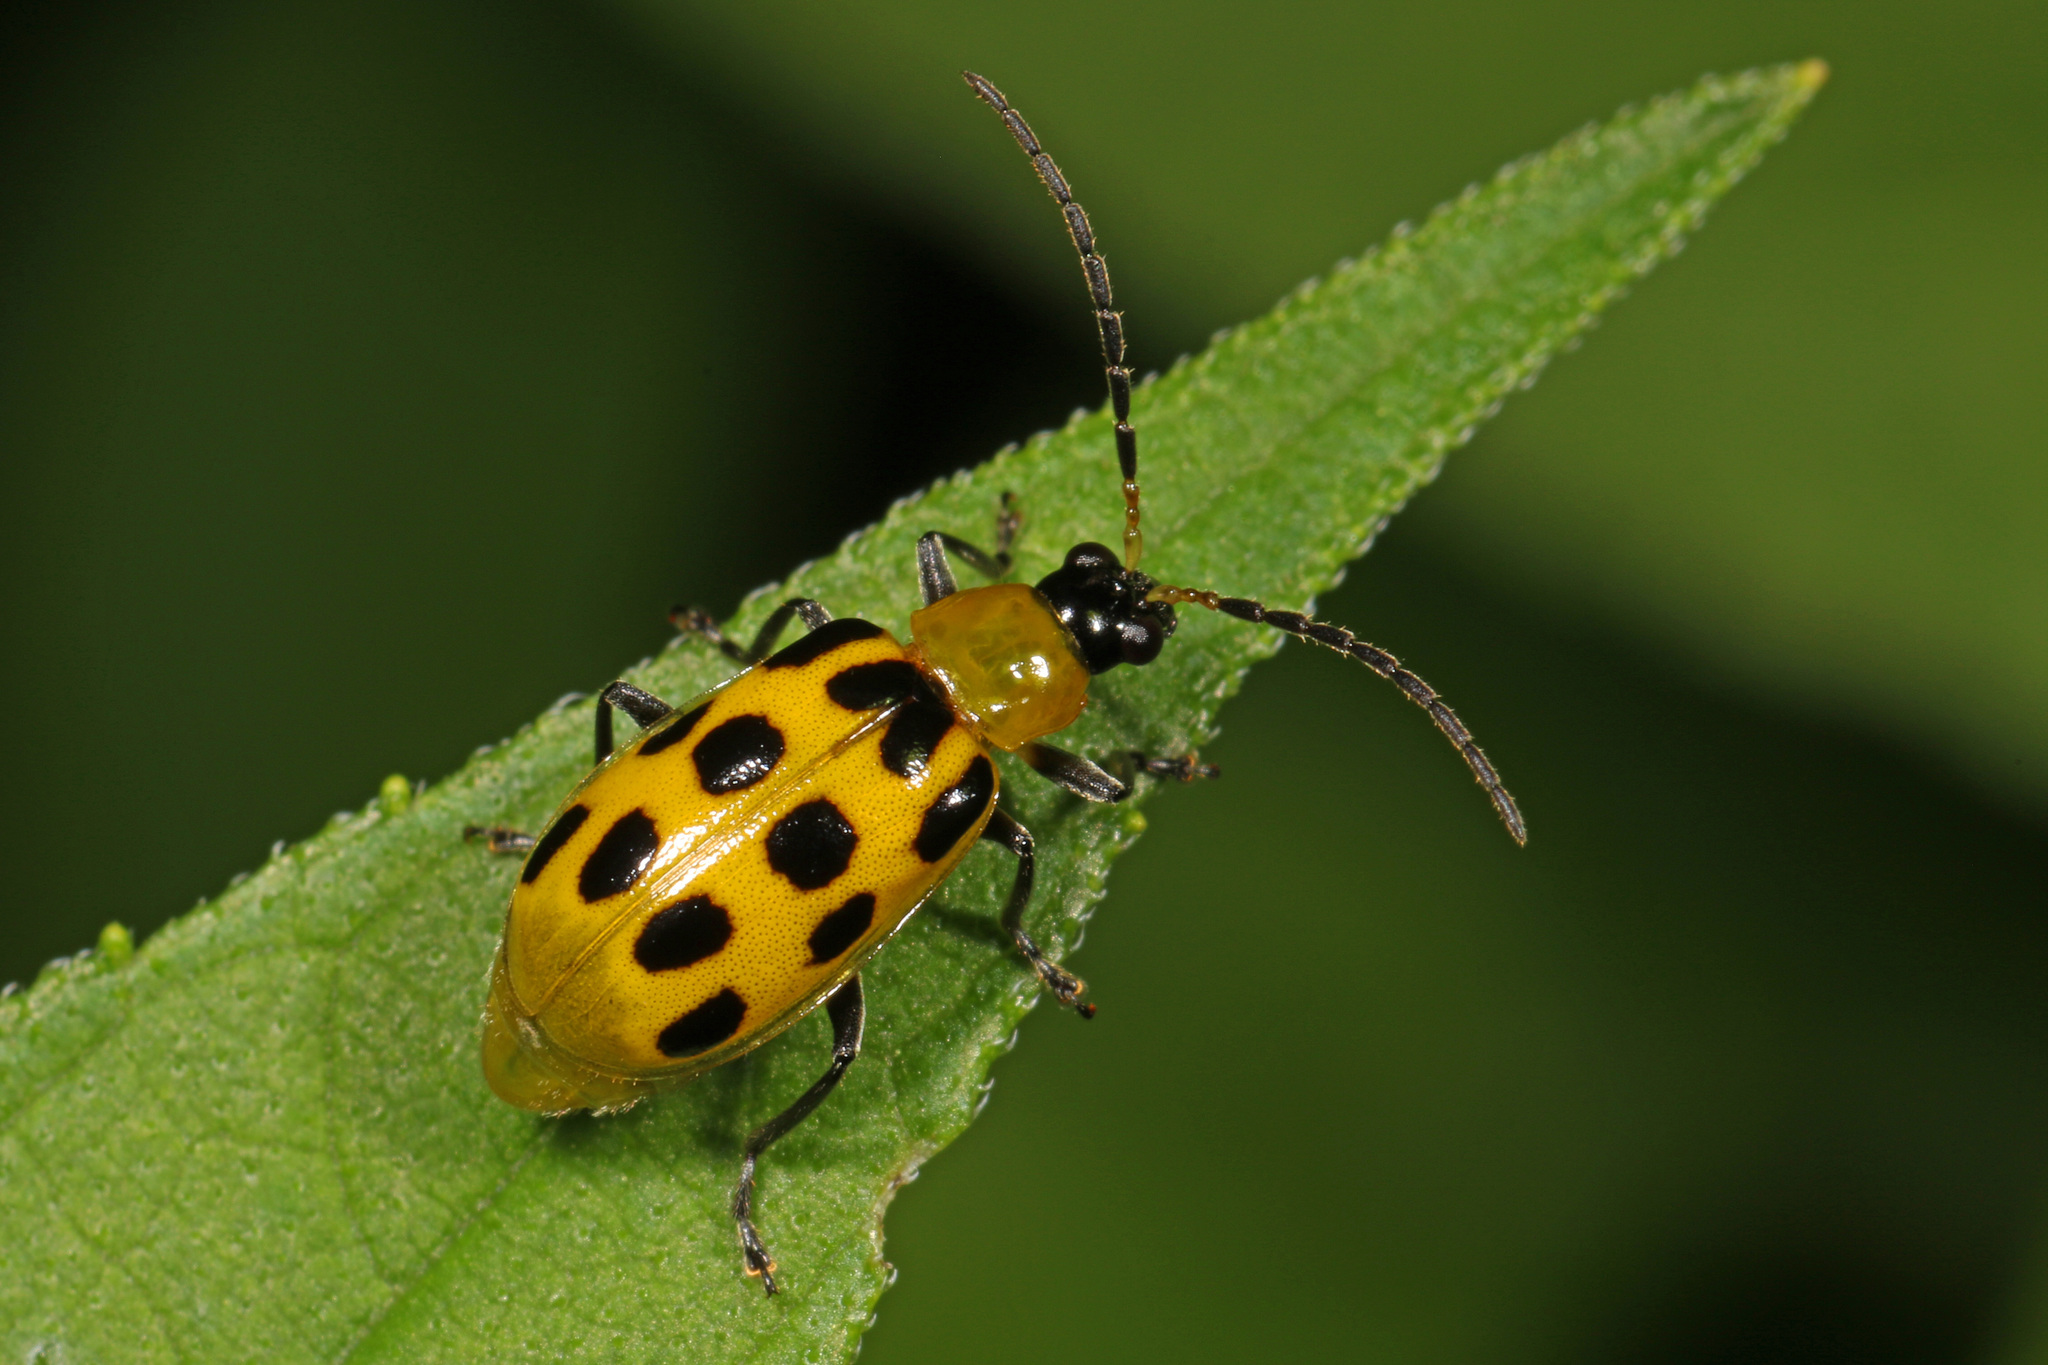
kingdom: Animalia
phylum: Arthropoda
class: Insecta
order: Coleoptera
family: Chrysomelidae
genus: Diabrotica
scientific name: Diabrotica undecimpunctata
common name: Spotted cucumber beetle
